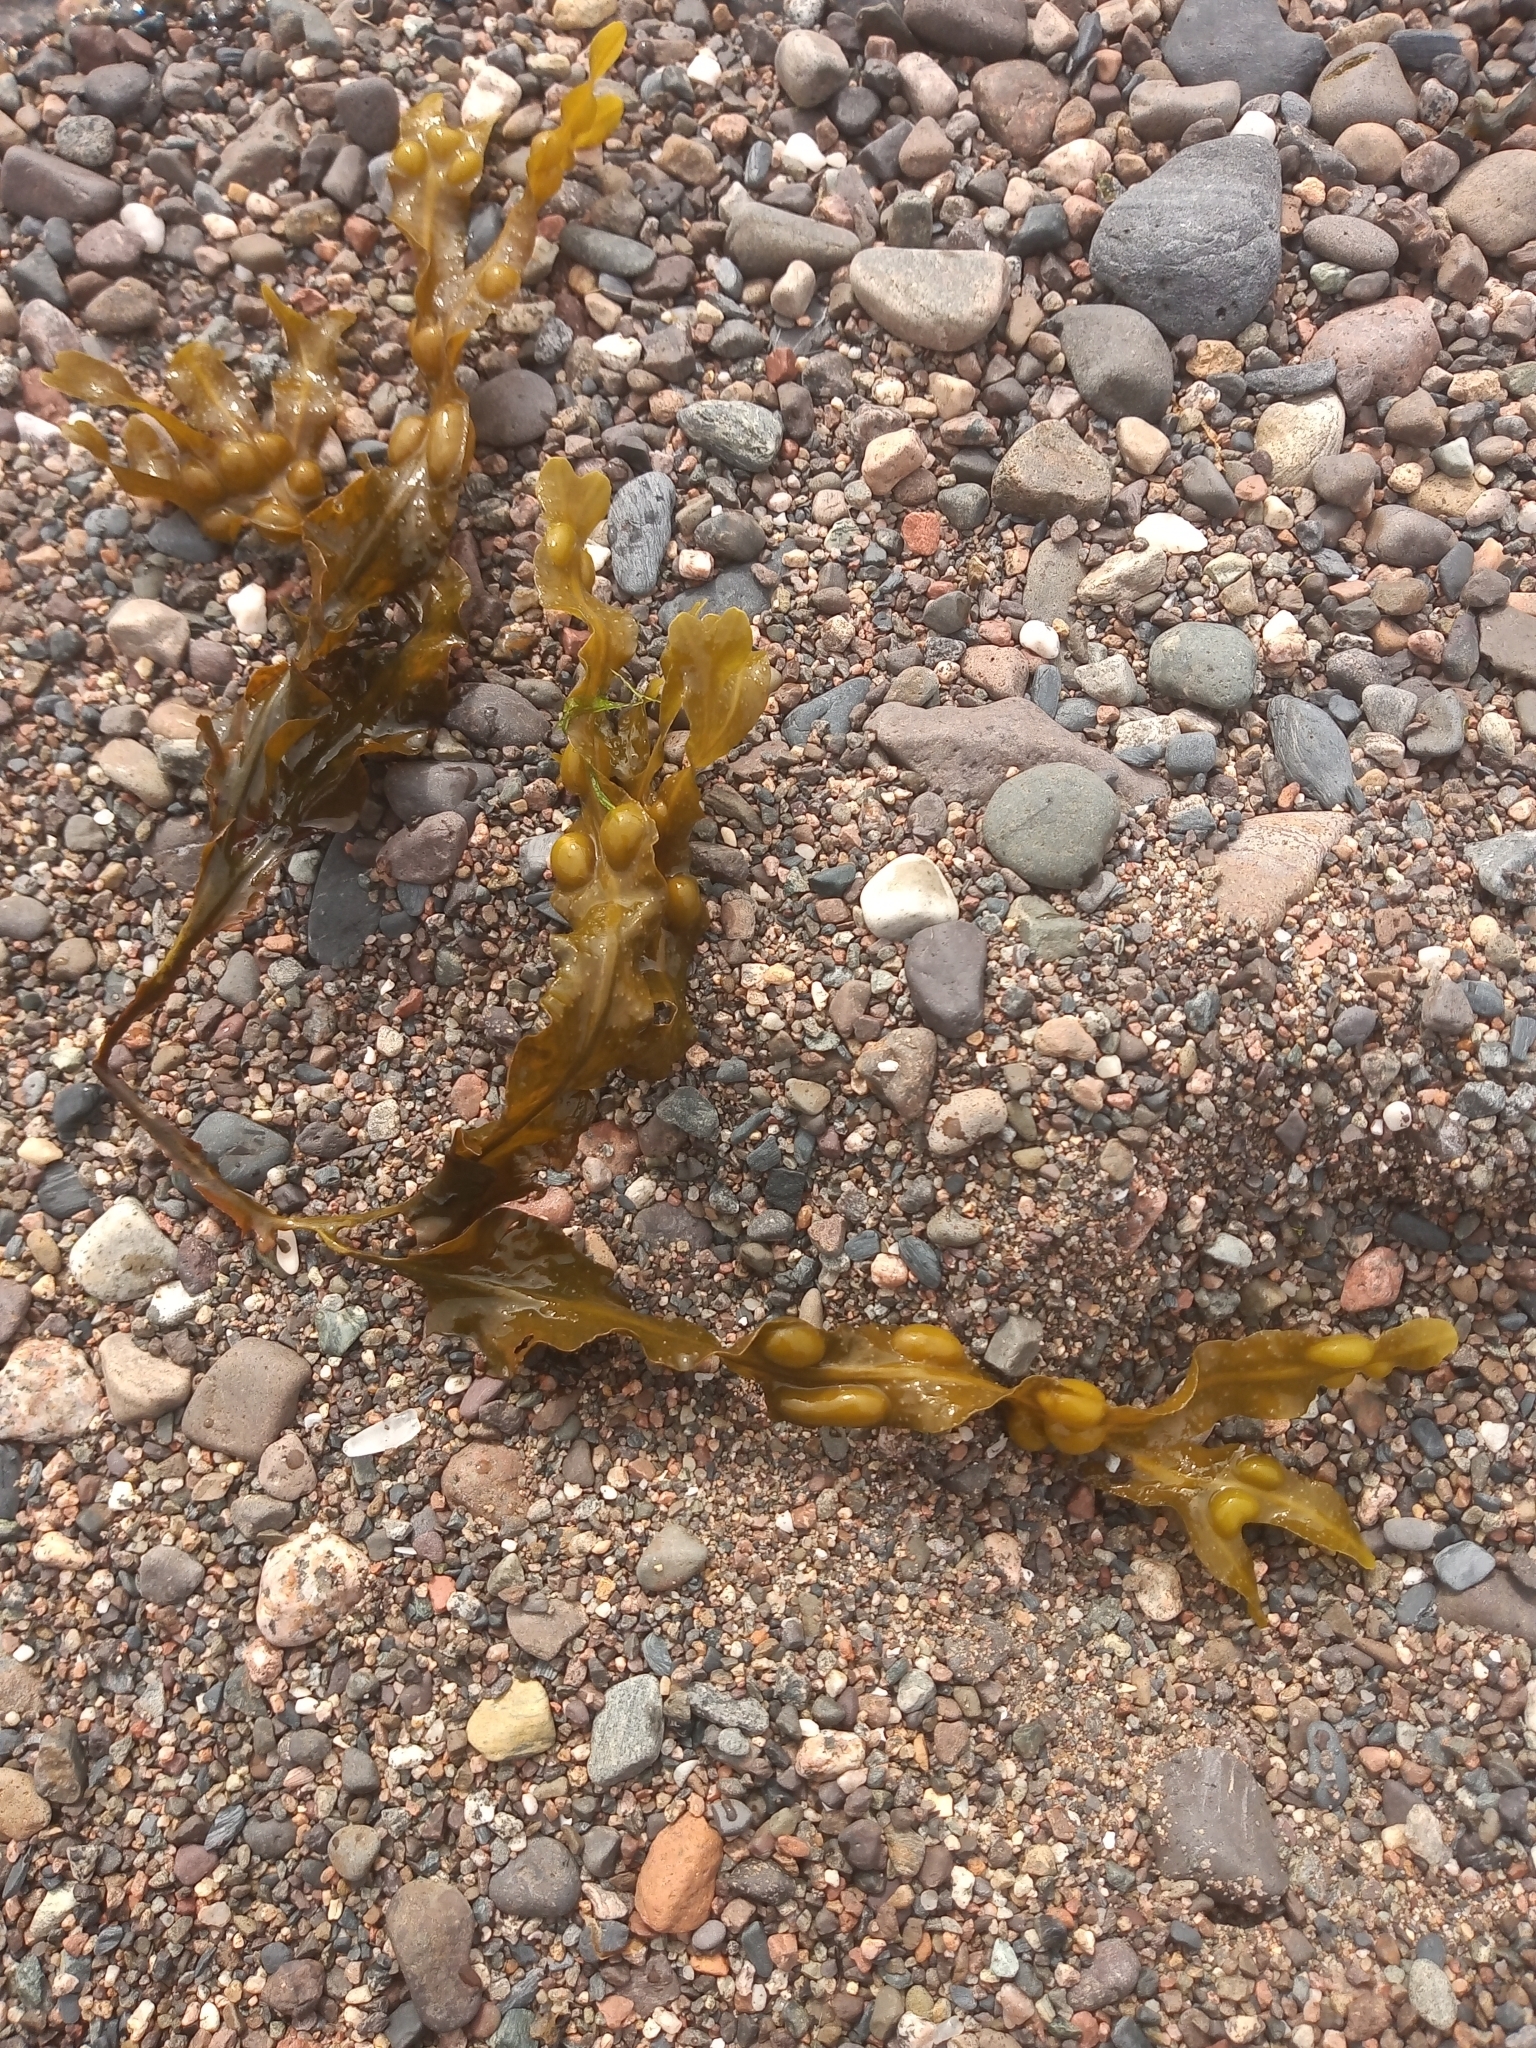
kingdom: Chromista
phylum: Ochrophyta
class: Phaeophyceae
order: Fucales
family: Fucaceae
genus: Fucus
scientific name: Fucus vesiculosus
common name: Bladder wrack
